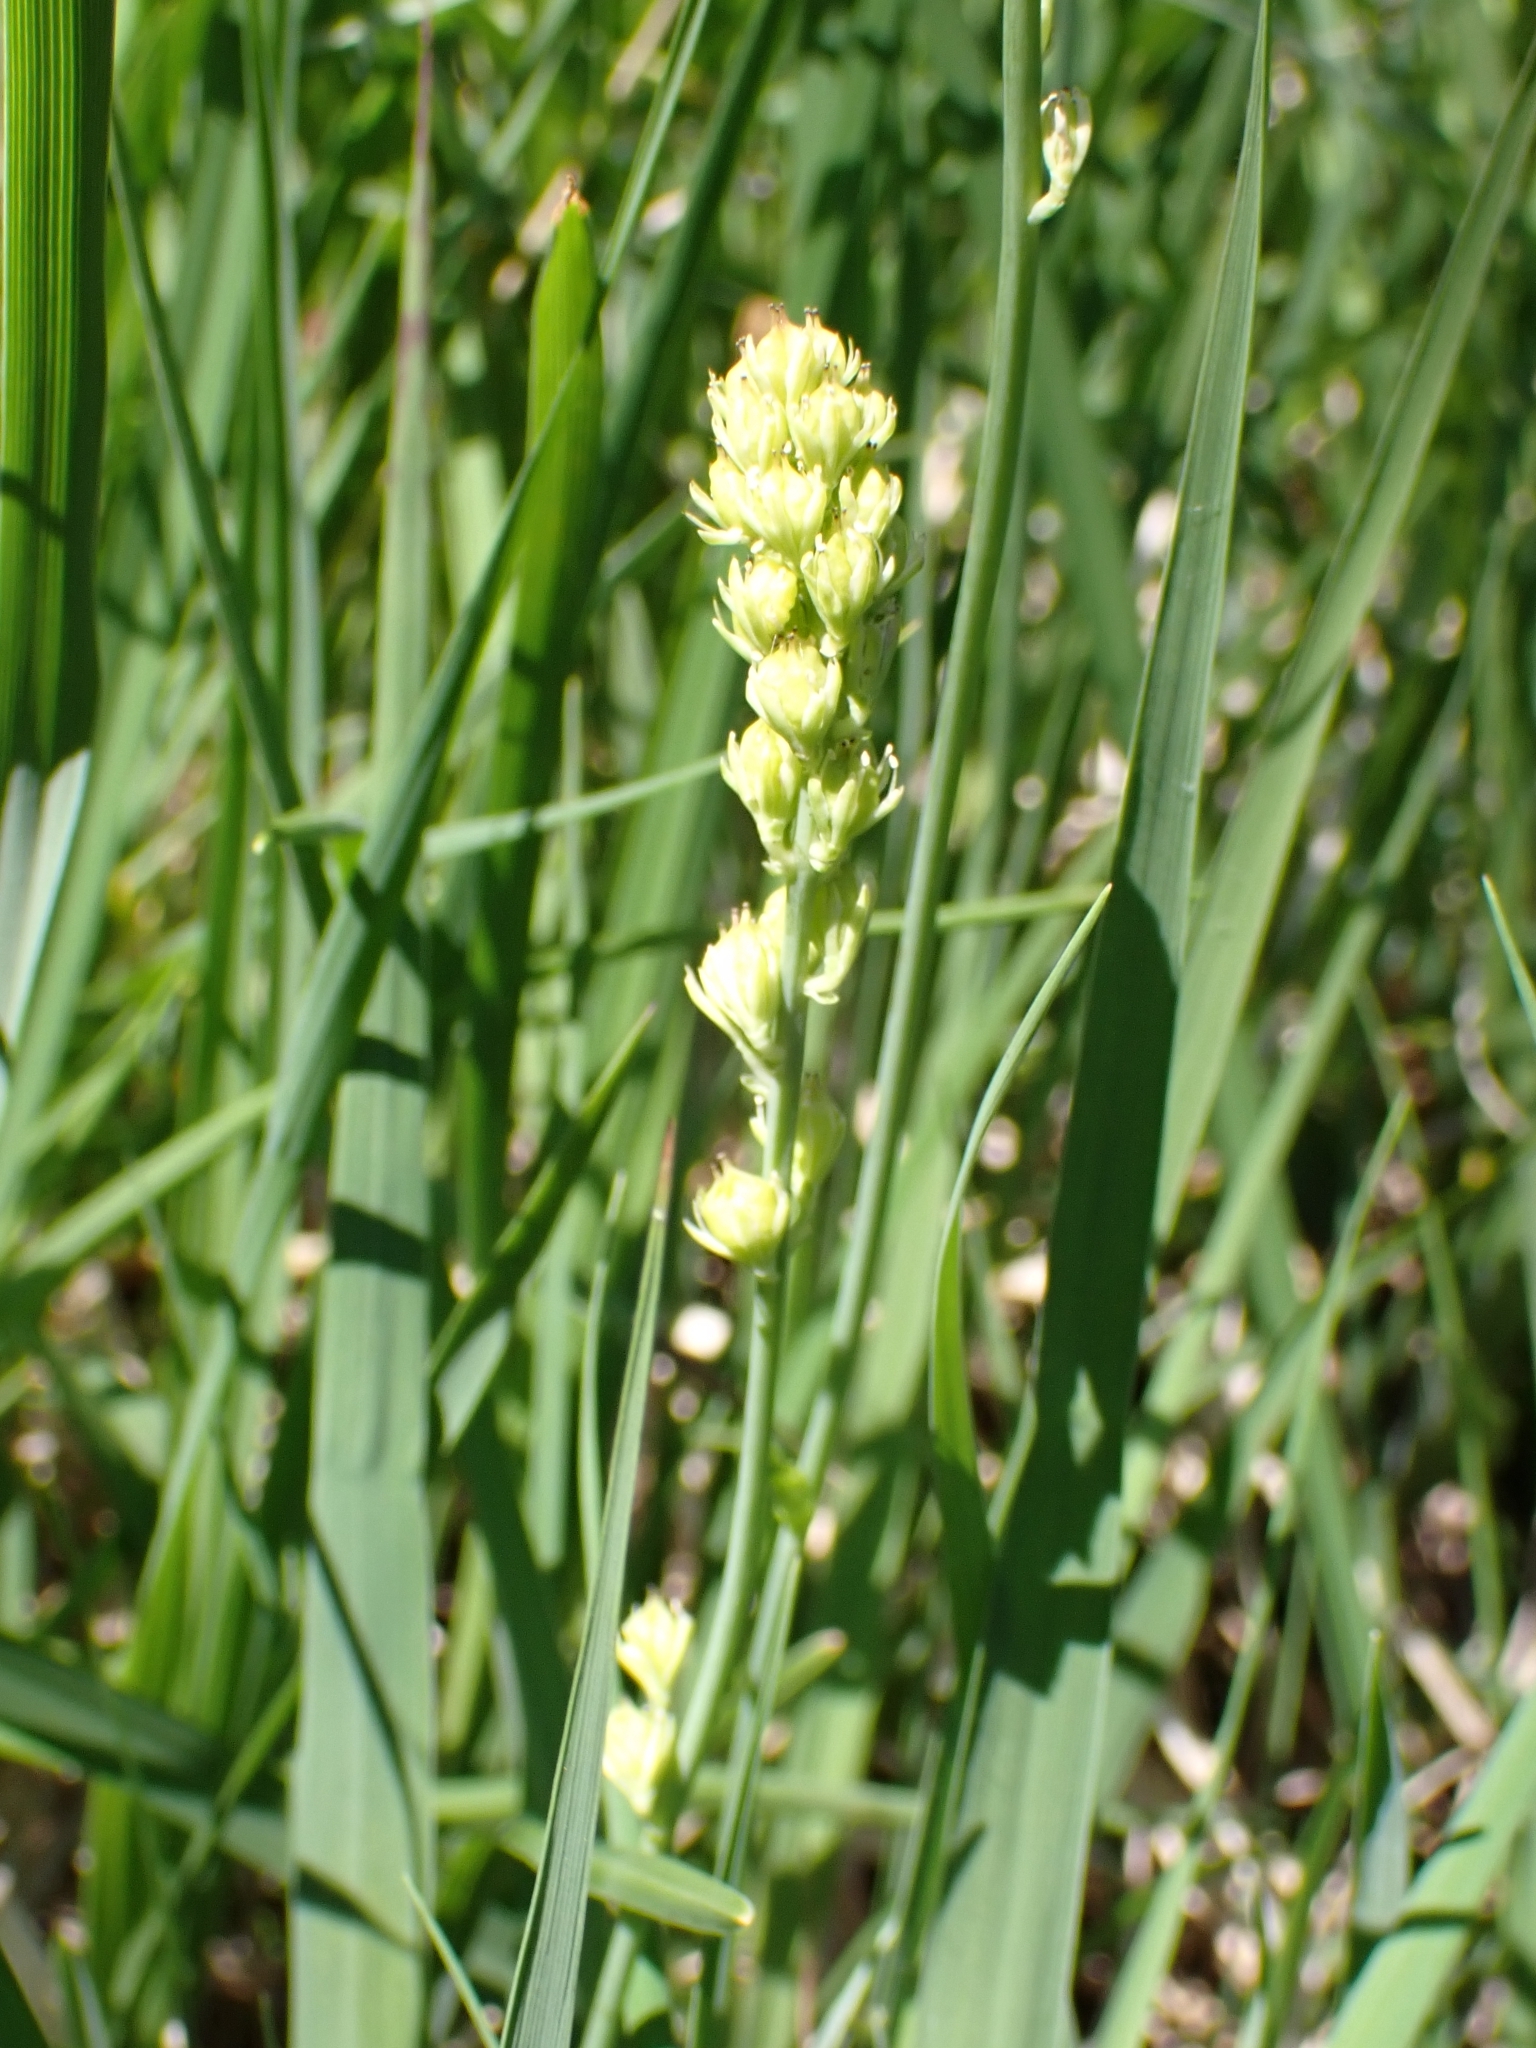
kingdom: Plantae
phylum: Tracheophyta
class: Liliopsida
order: Alismatales
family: Tofieldiaceae
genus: Tofieldia
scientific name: Tofieldia calyculata
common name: German-asphodel
